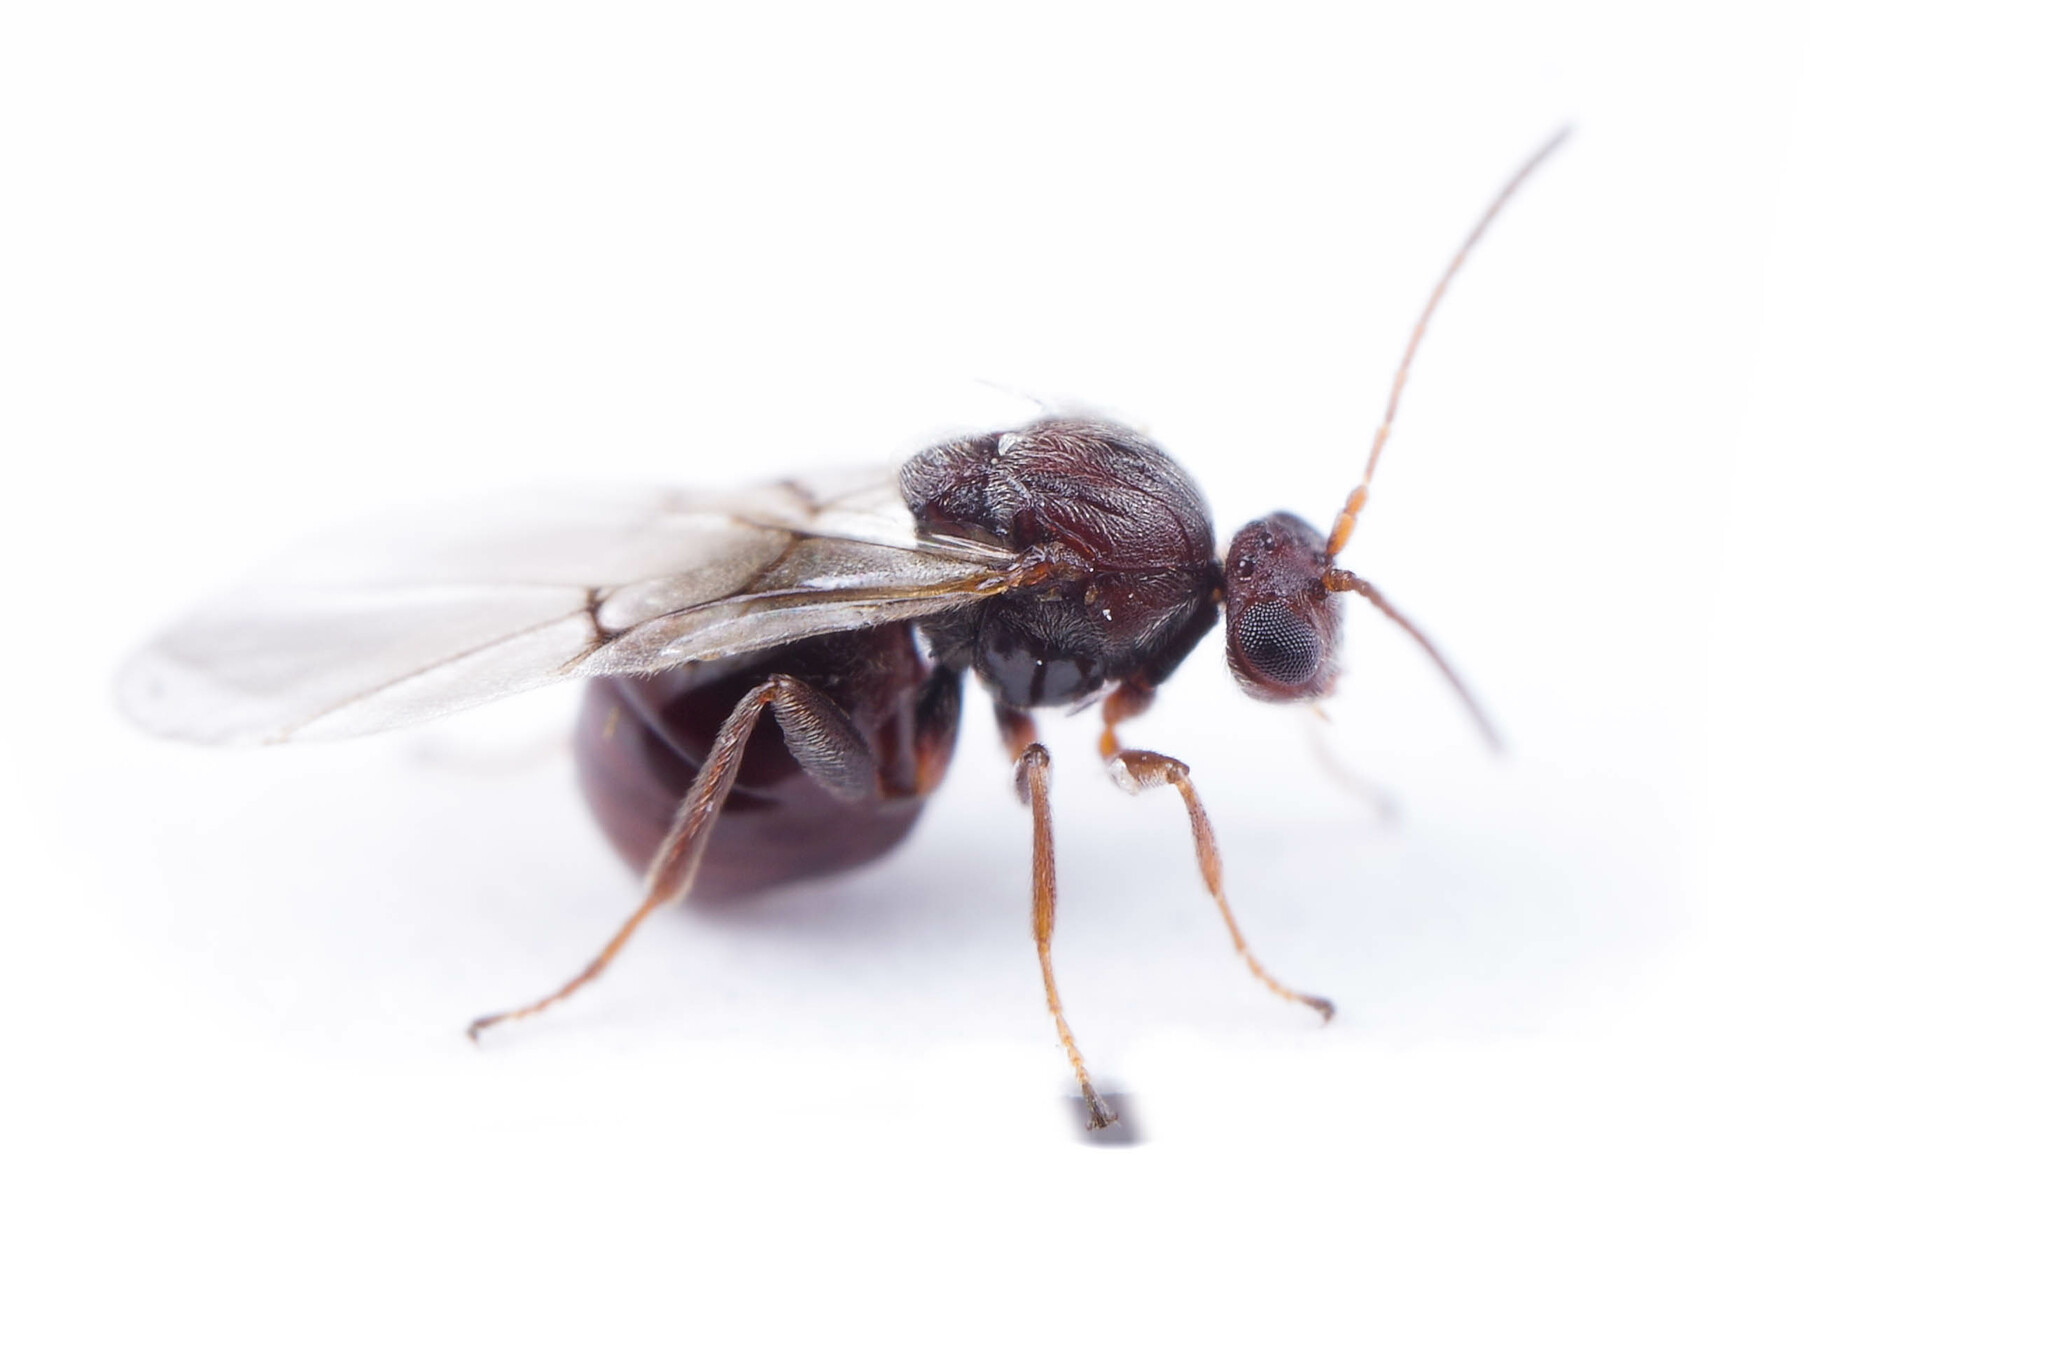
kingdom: Animalia
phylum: Arthropoda
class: Insecta
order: Hymenoptera
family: Cynipidae
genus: Andricus
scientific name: Andricus
